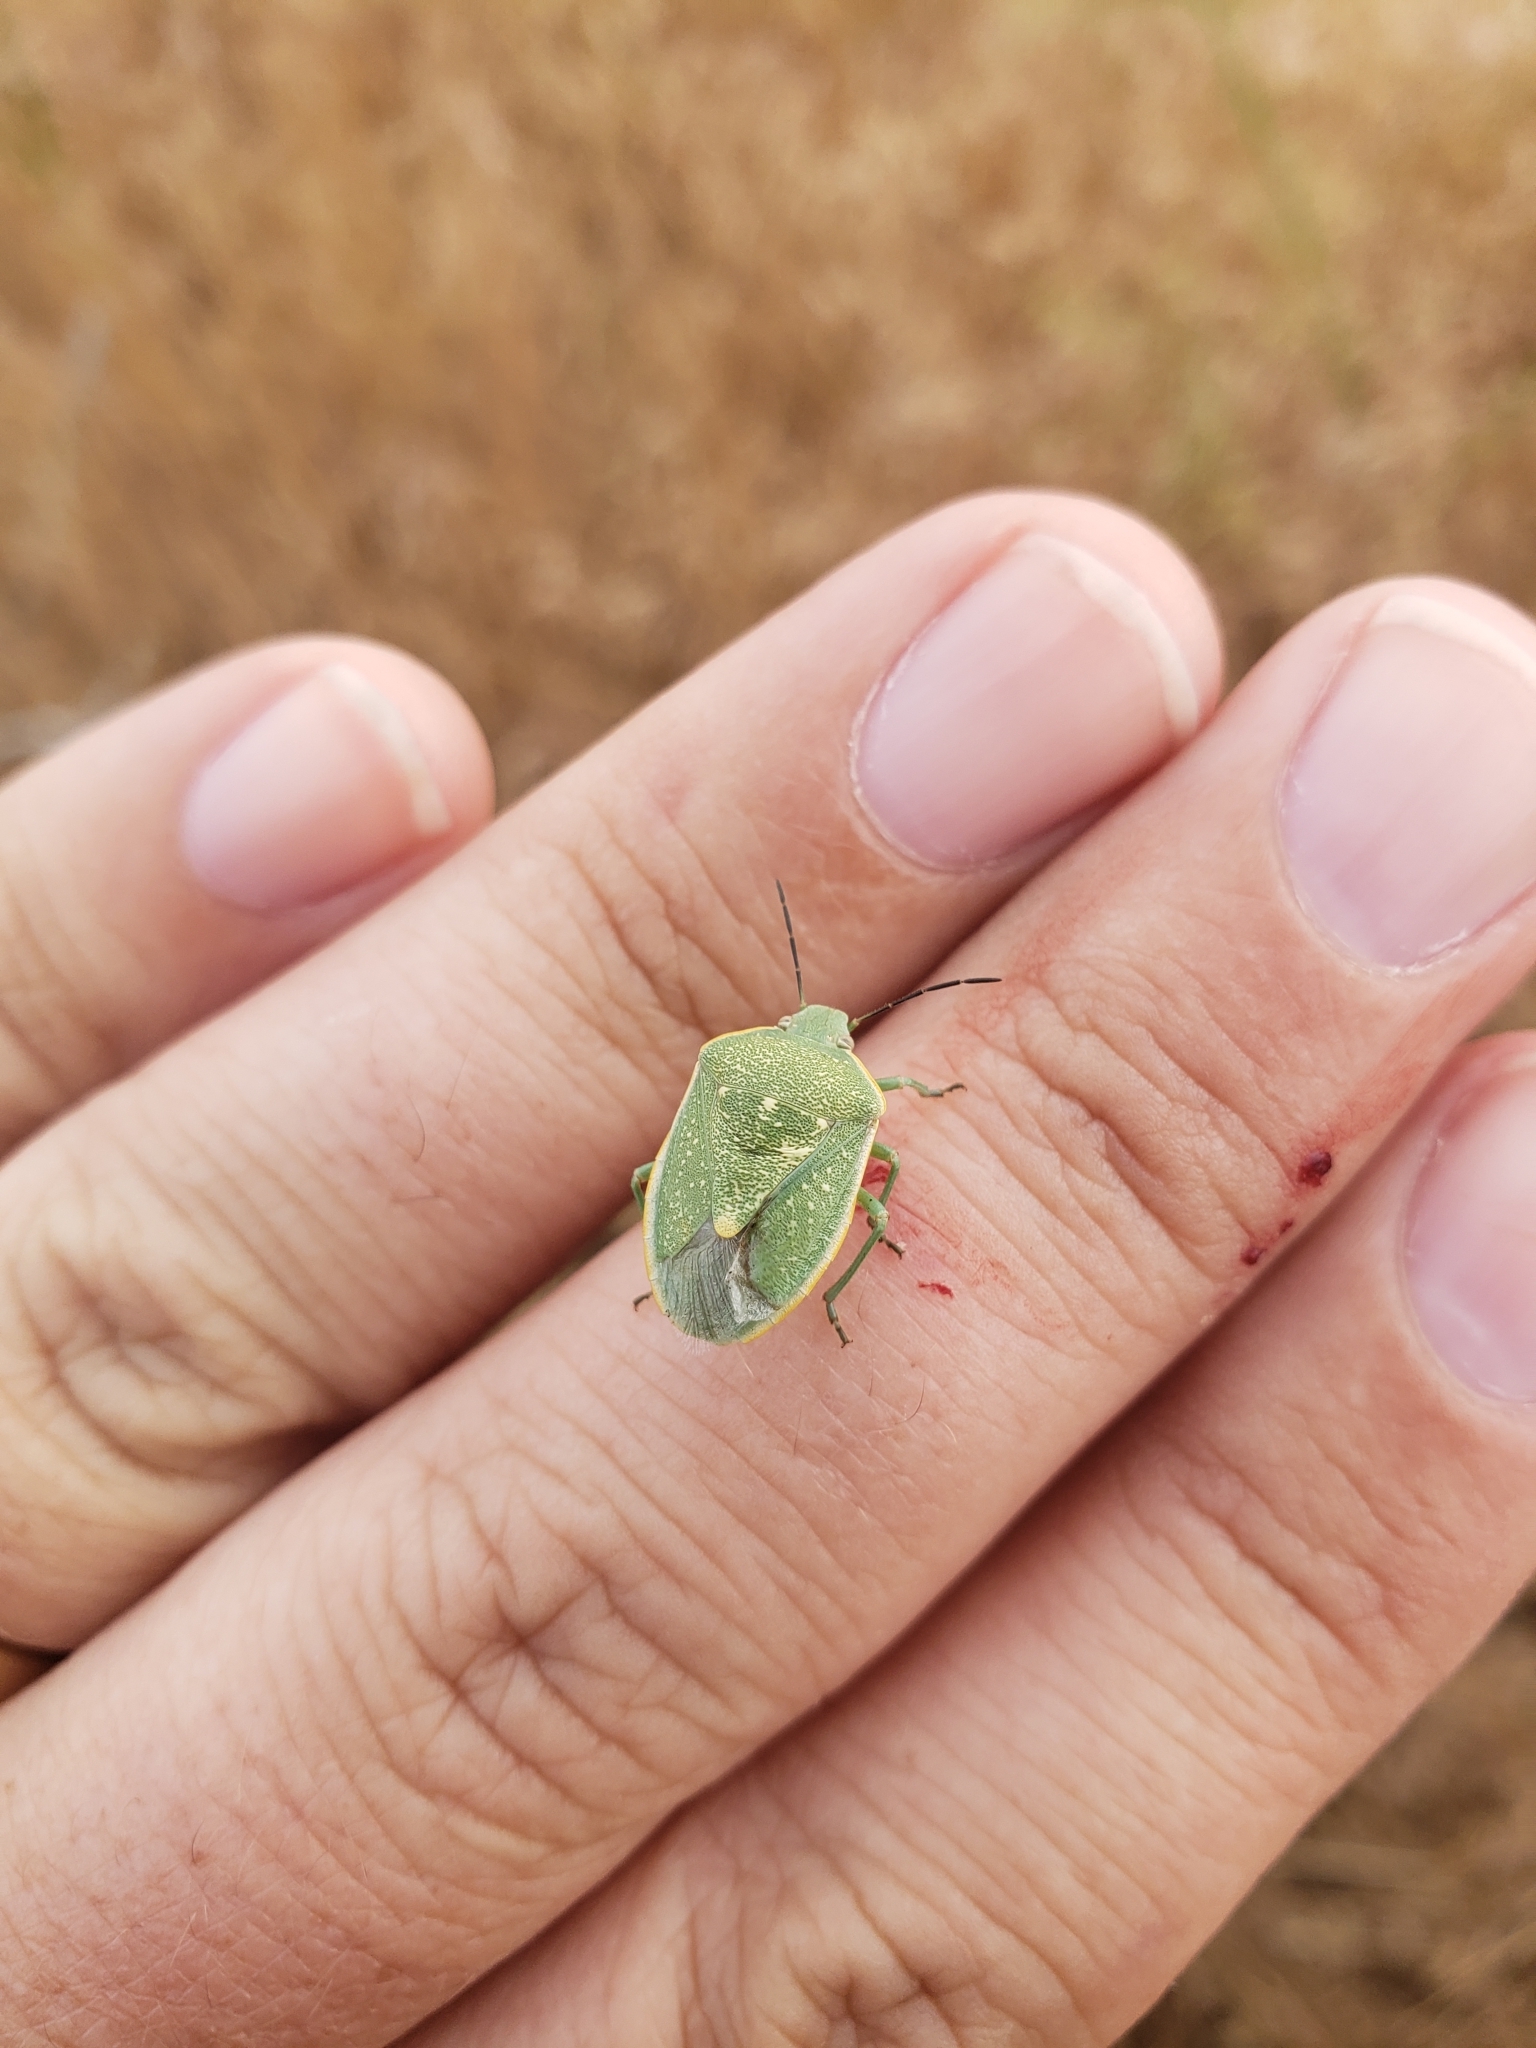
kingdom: Animalia
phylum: Arthropoda
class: Insecta
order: Hemiptera
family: Pentatomidae
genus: Chlorochroa
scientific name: Chlorochroa uhleri
